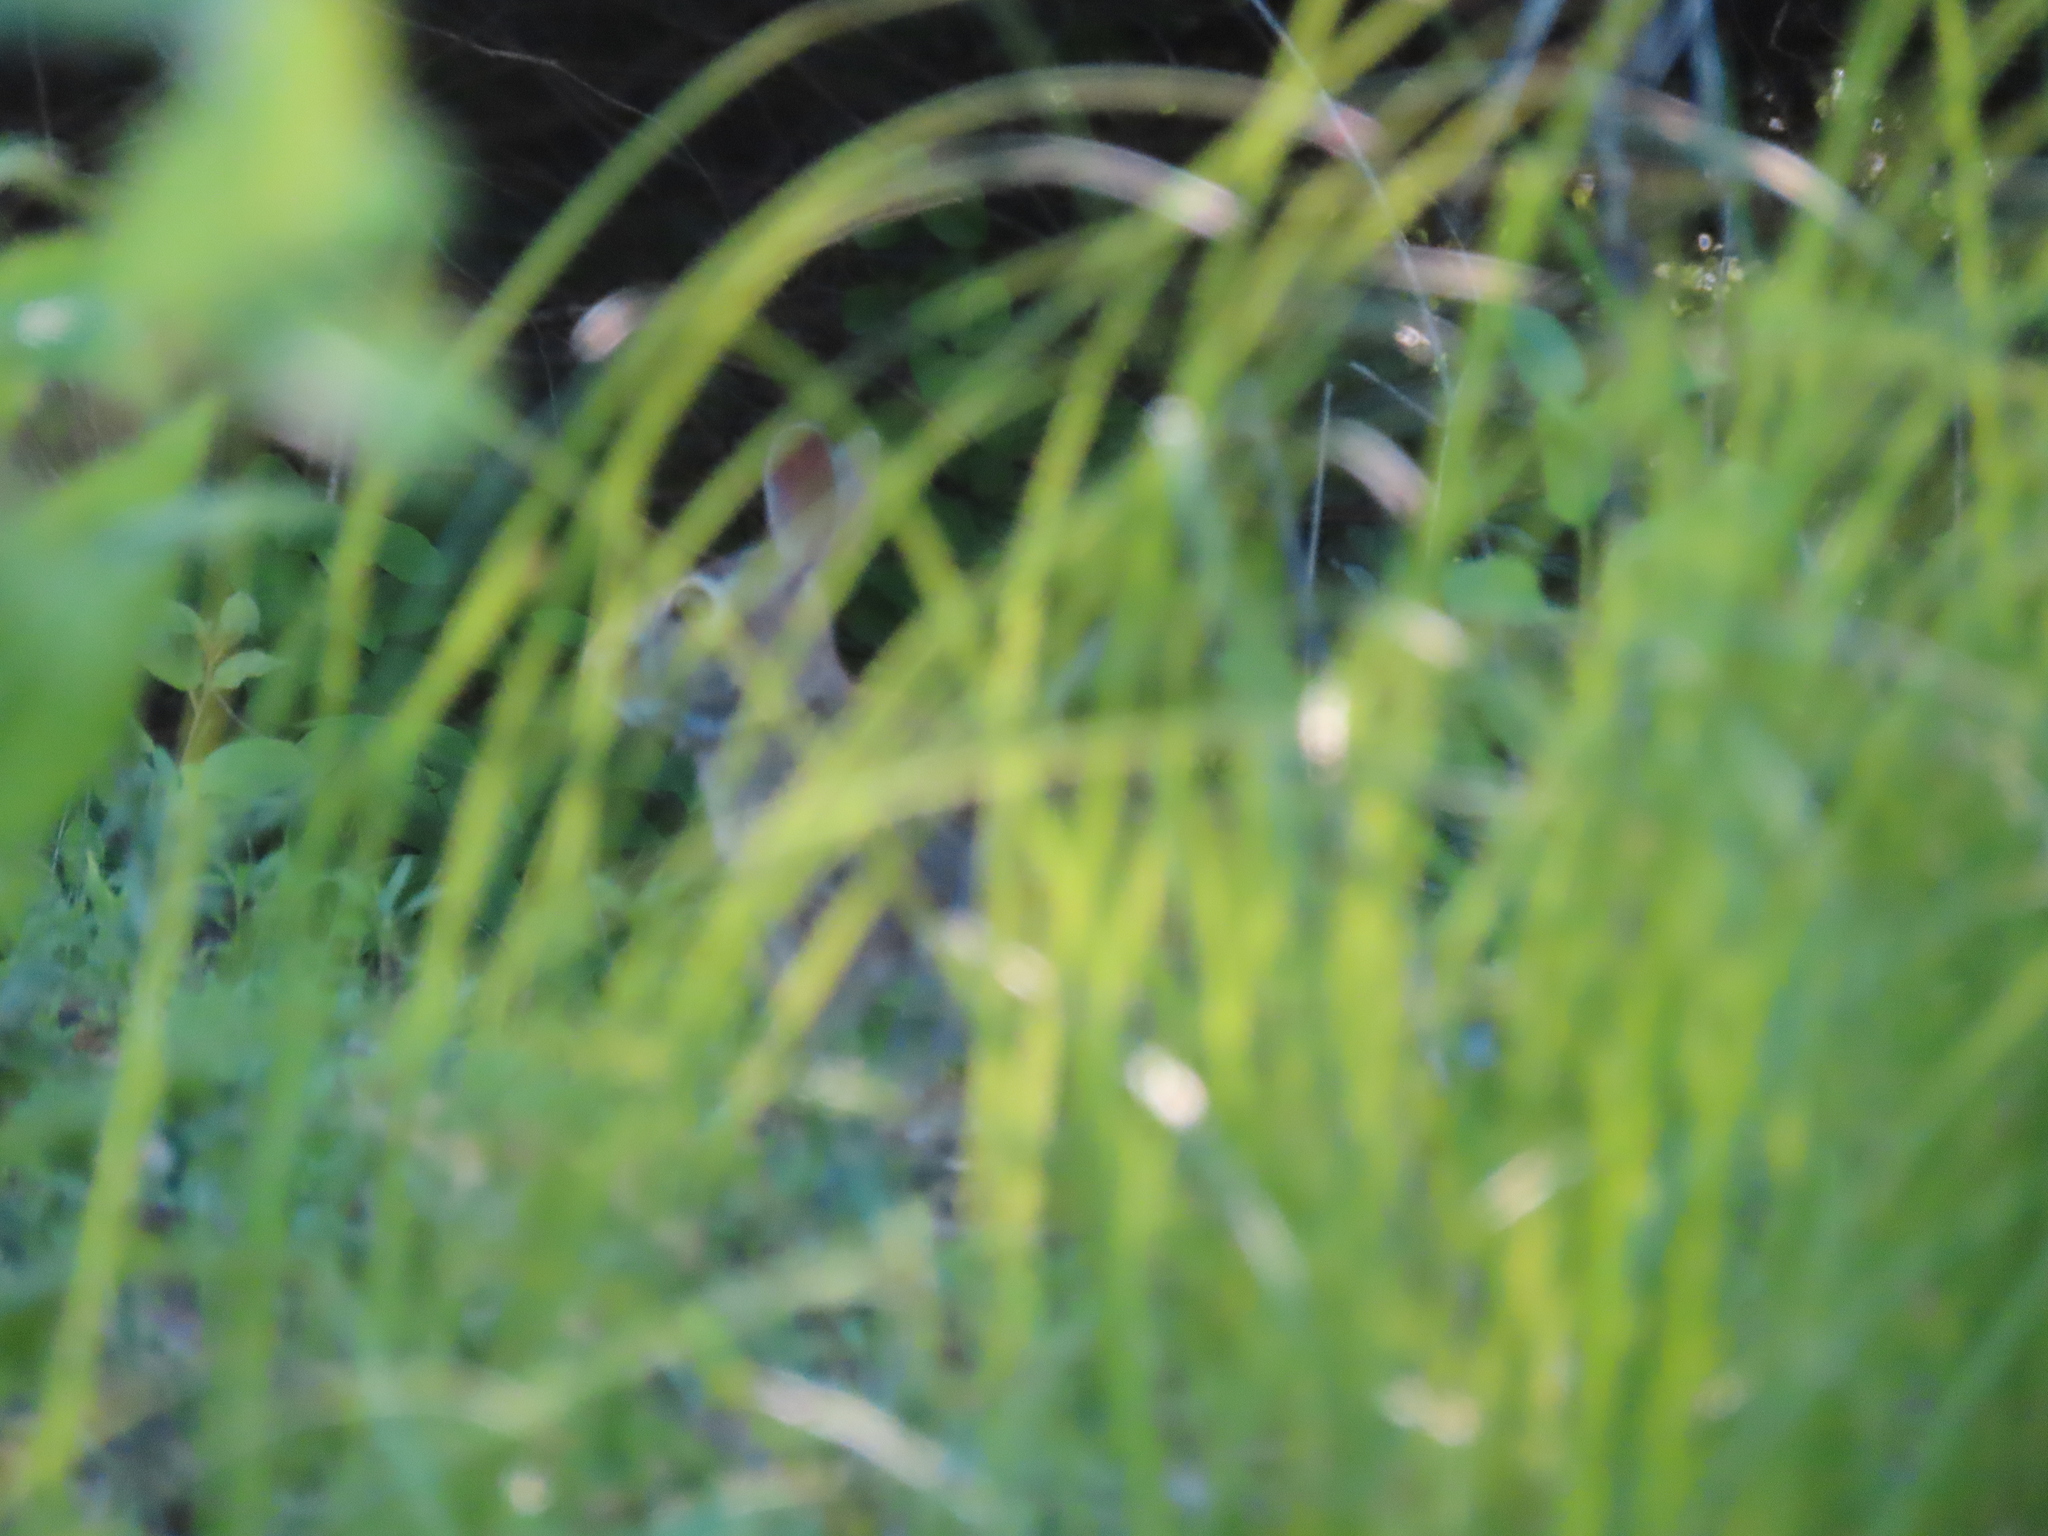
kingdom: Animalia
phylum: Chordata
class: Mammalia
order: Lagomorpha
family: Leporidae
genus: Sylvilagus
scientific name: Sylvilagus floridanus
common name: Eastern cottontail
